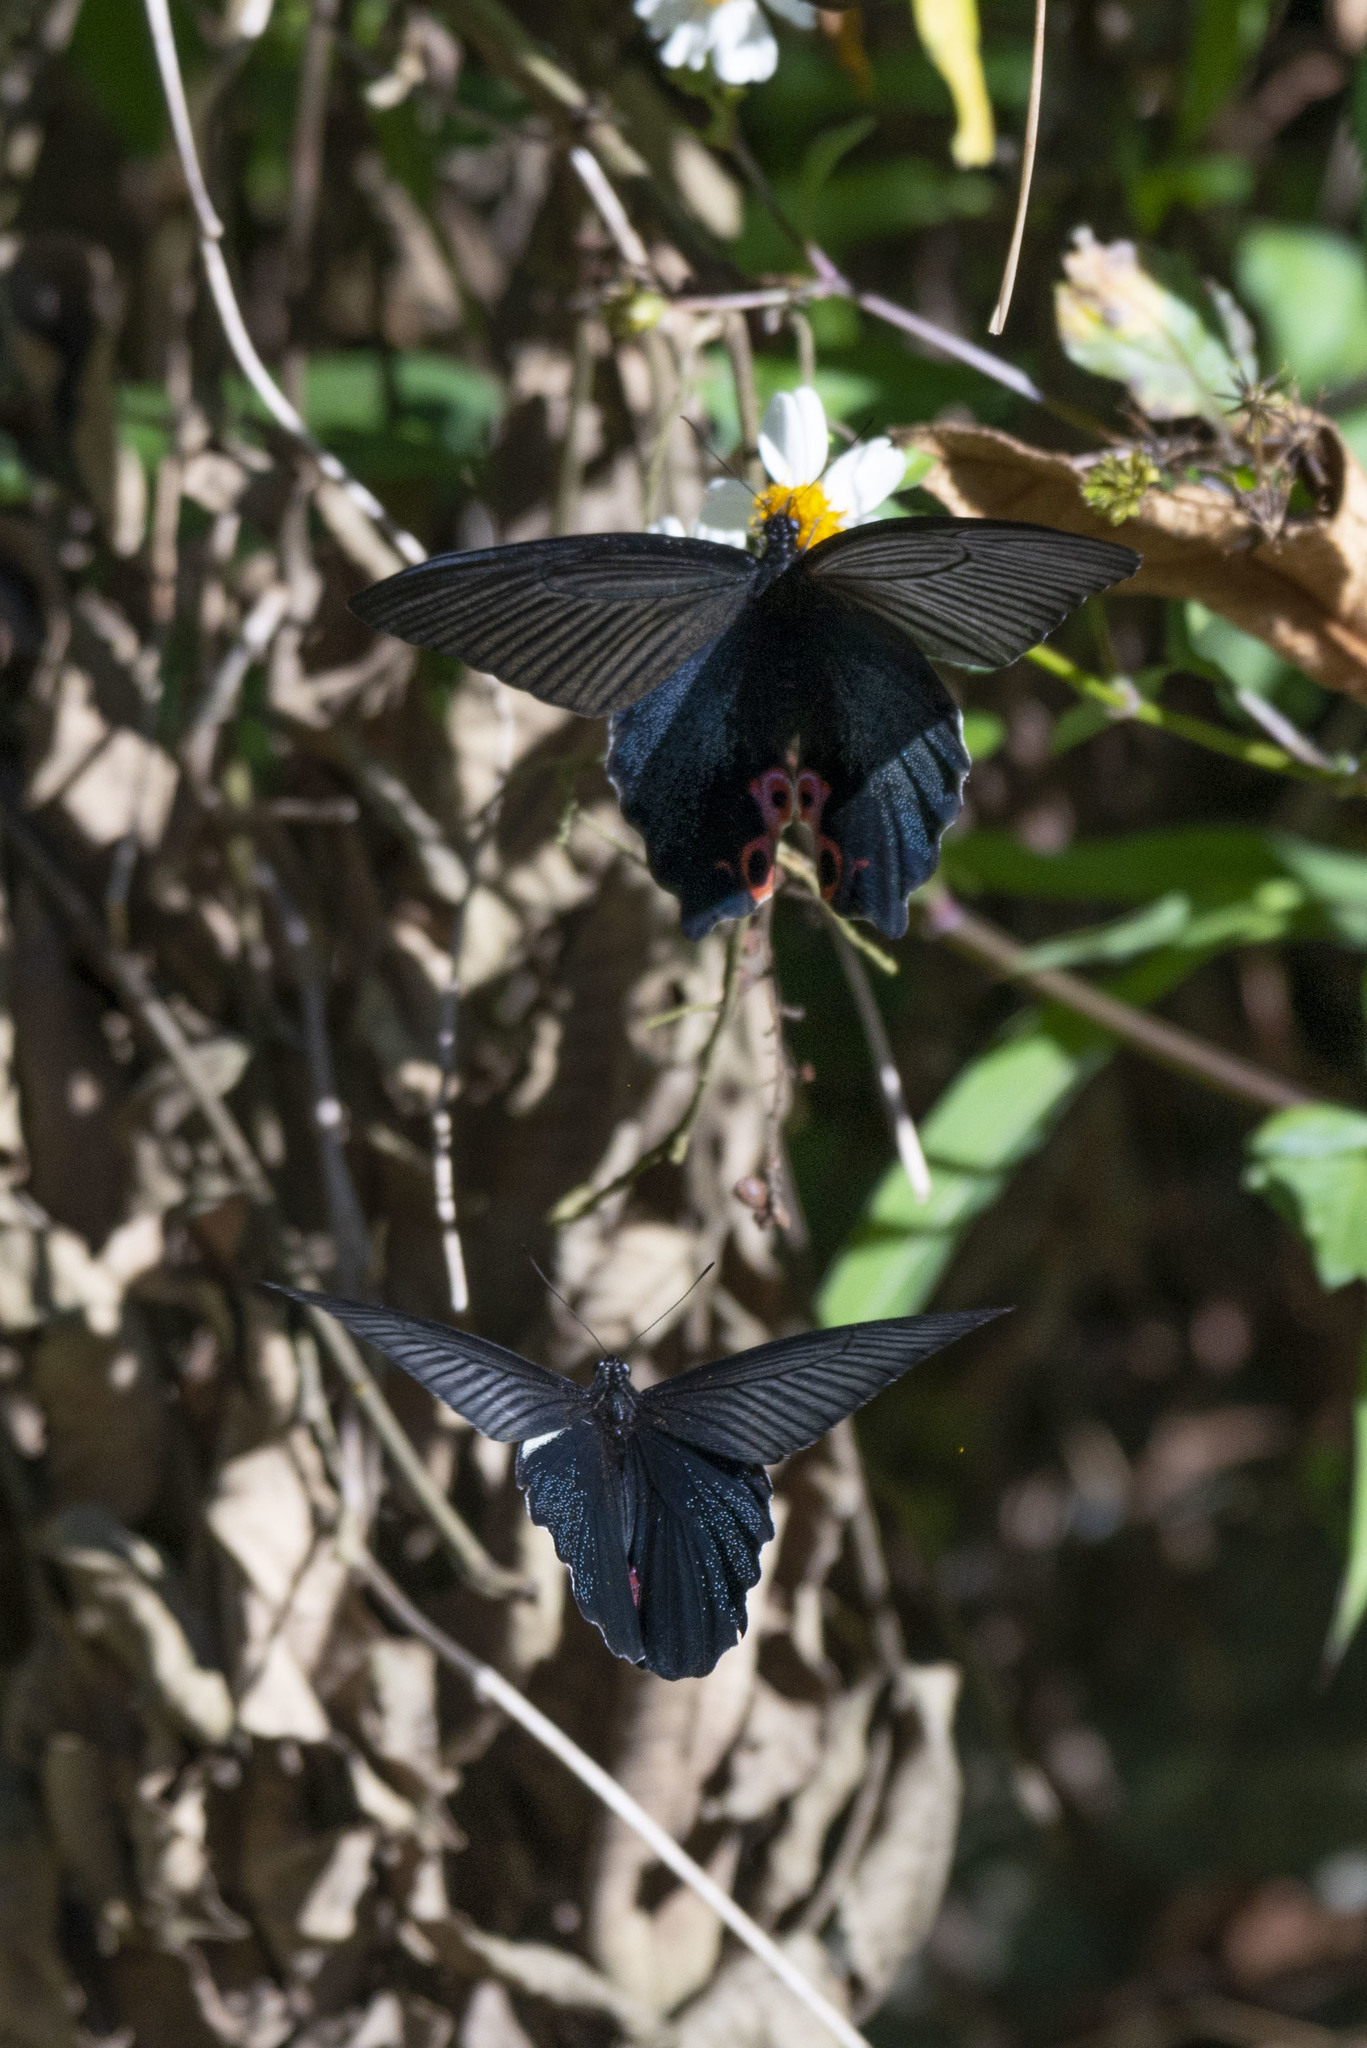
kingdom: Animalia
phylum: Arthropoda
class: Insecta
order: Lepidoptera
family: Papilionidae
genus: Papilio
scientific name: Papilio protenor
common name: Spangle
